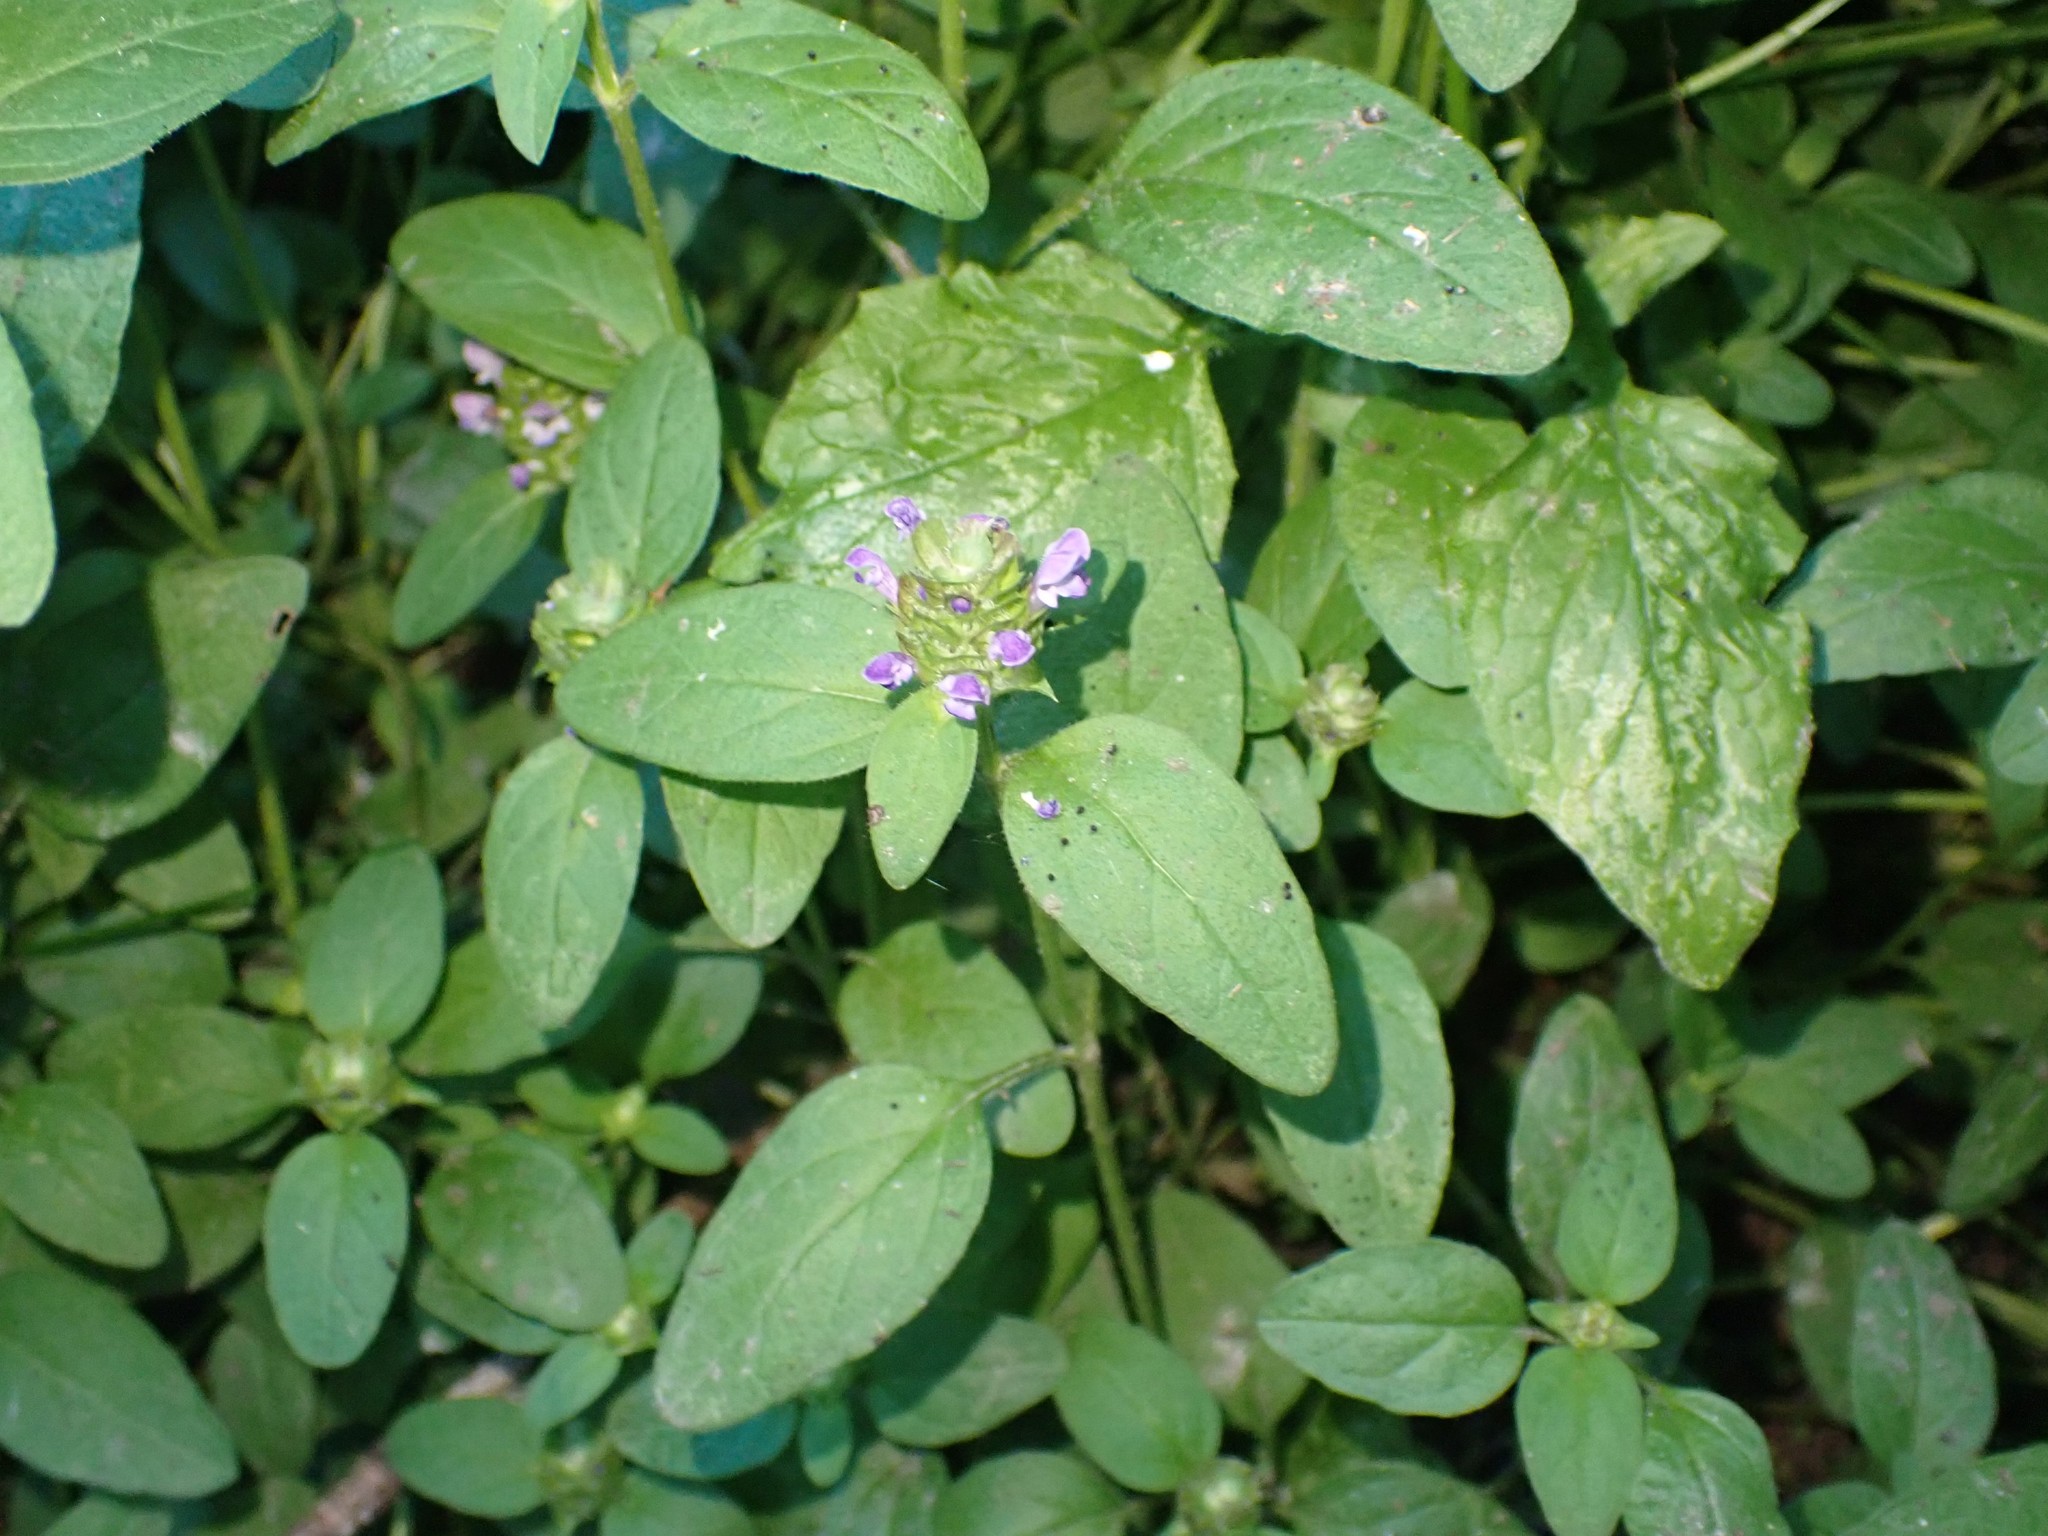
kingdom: Plantae
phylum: Tracheophyta
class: Magnoliopsida
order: Lamiales
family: Lamiaceae
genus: Prunella
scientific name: Prunella vulgaris
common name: Heal-all
